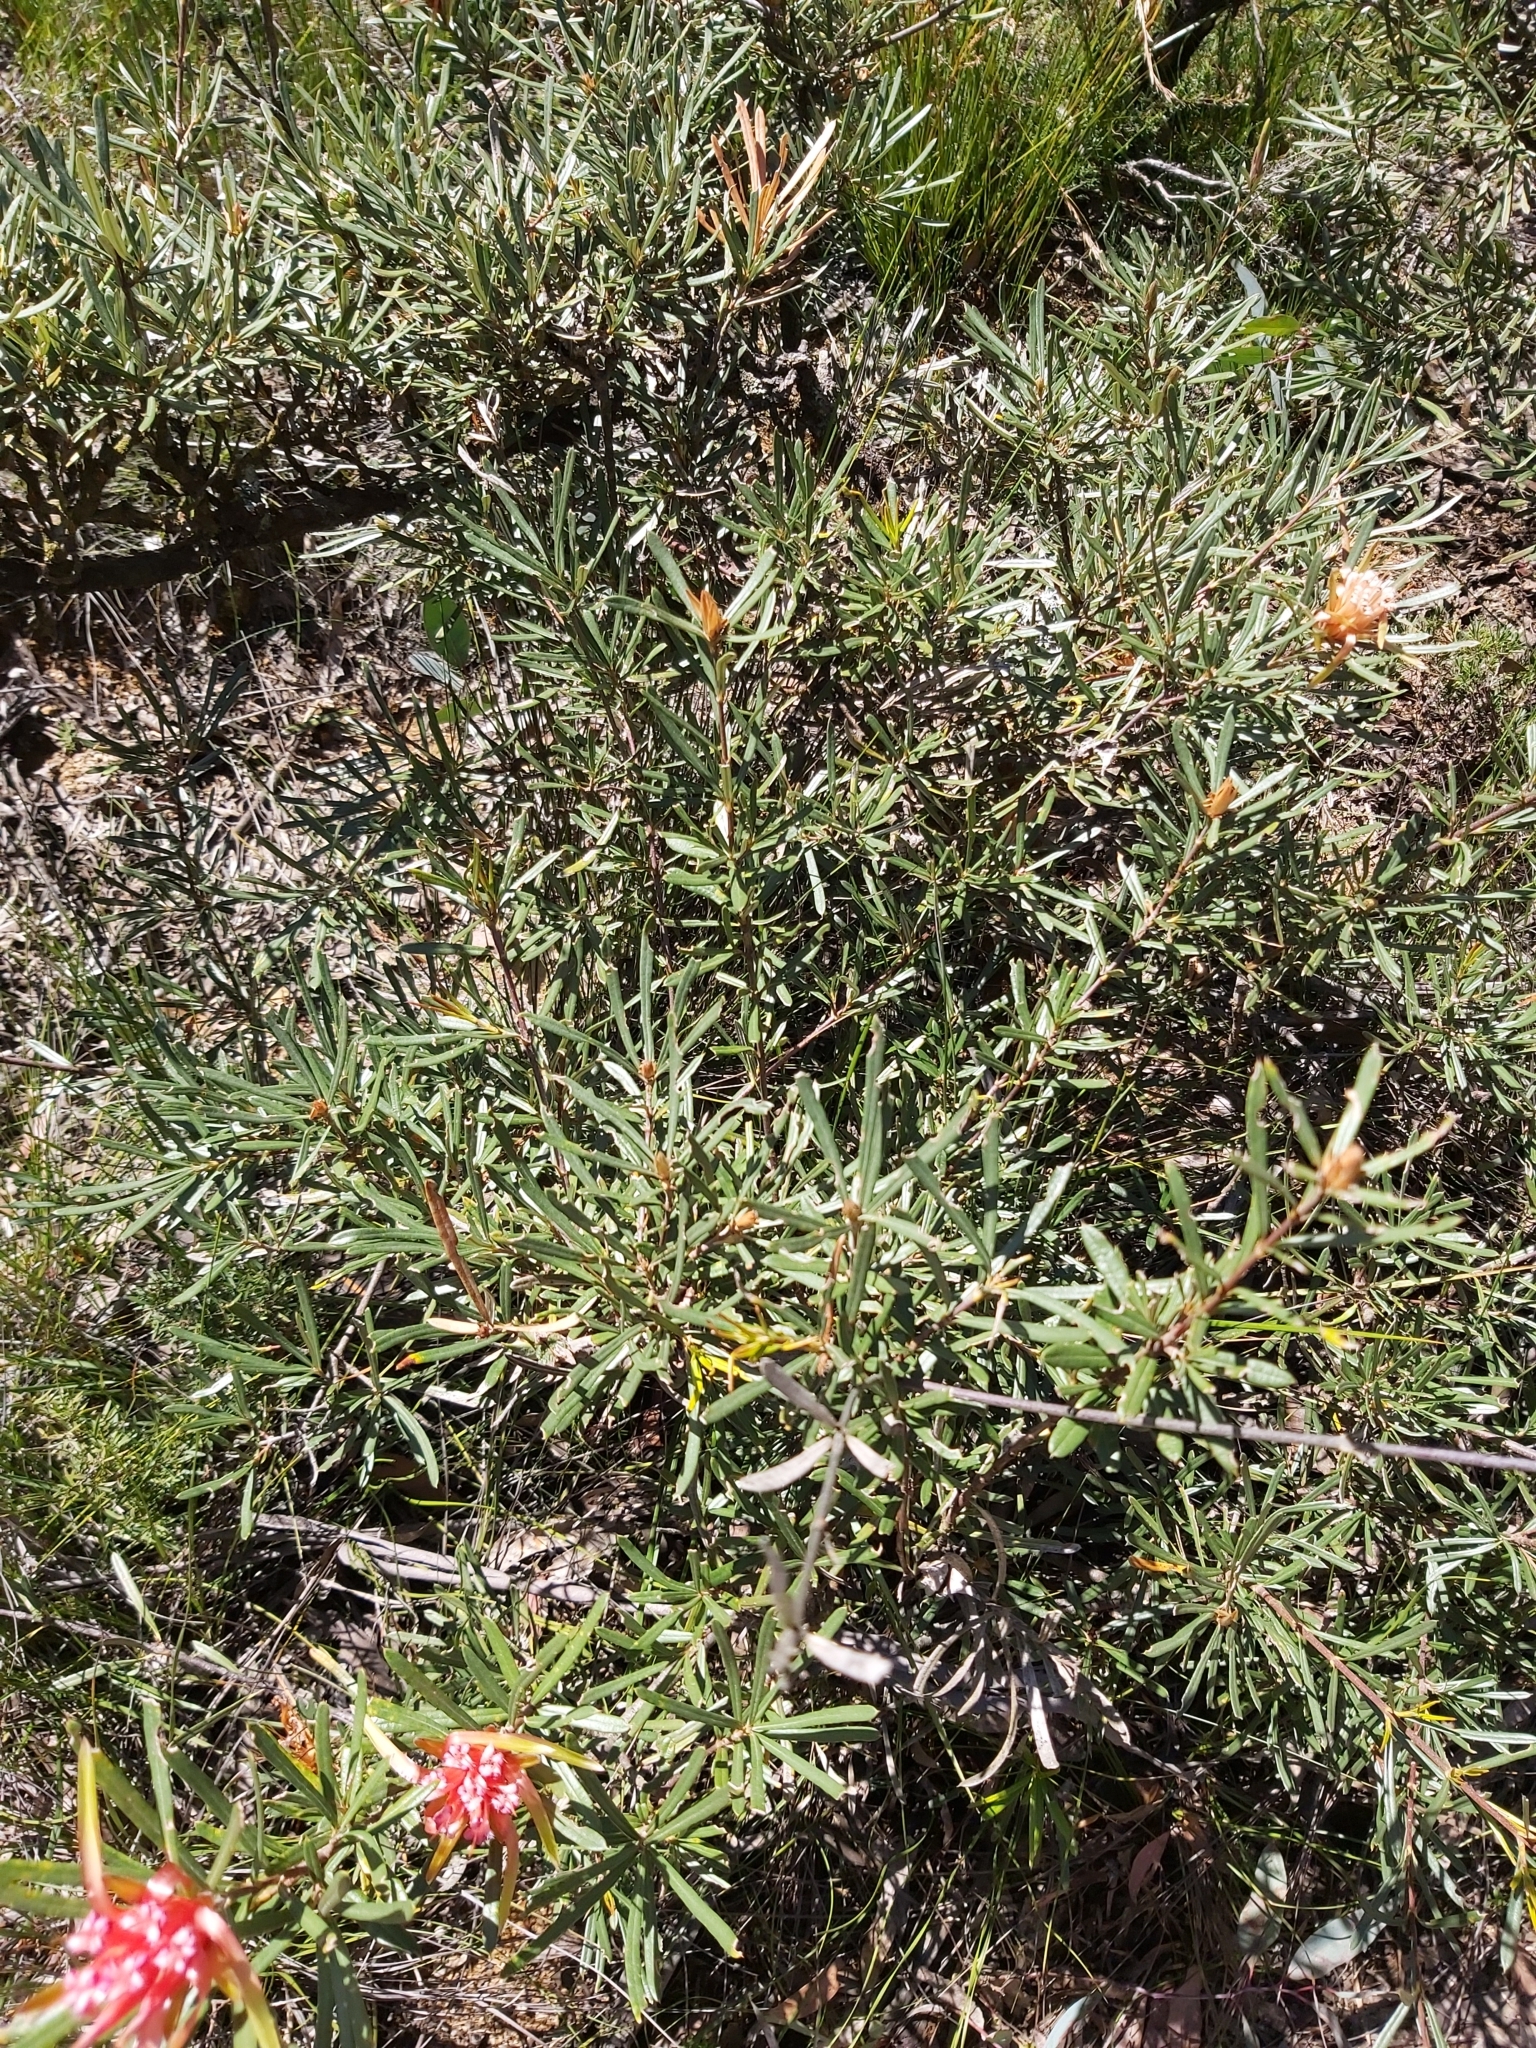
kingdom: Plantae
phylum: Tracheophyta
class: Magnoliopsida
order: Proteales
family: Proteaceae
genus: Lambertia
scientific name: Lambertia formosa
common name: Mountain-devil
